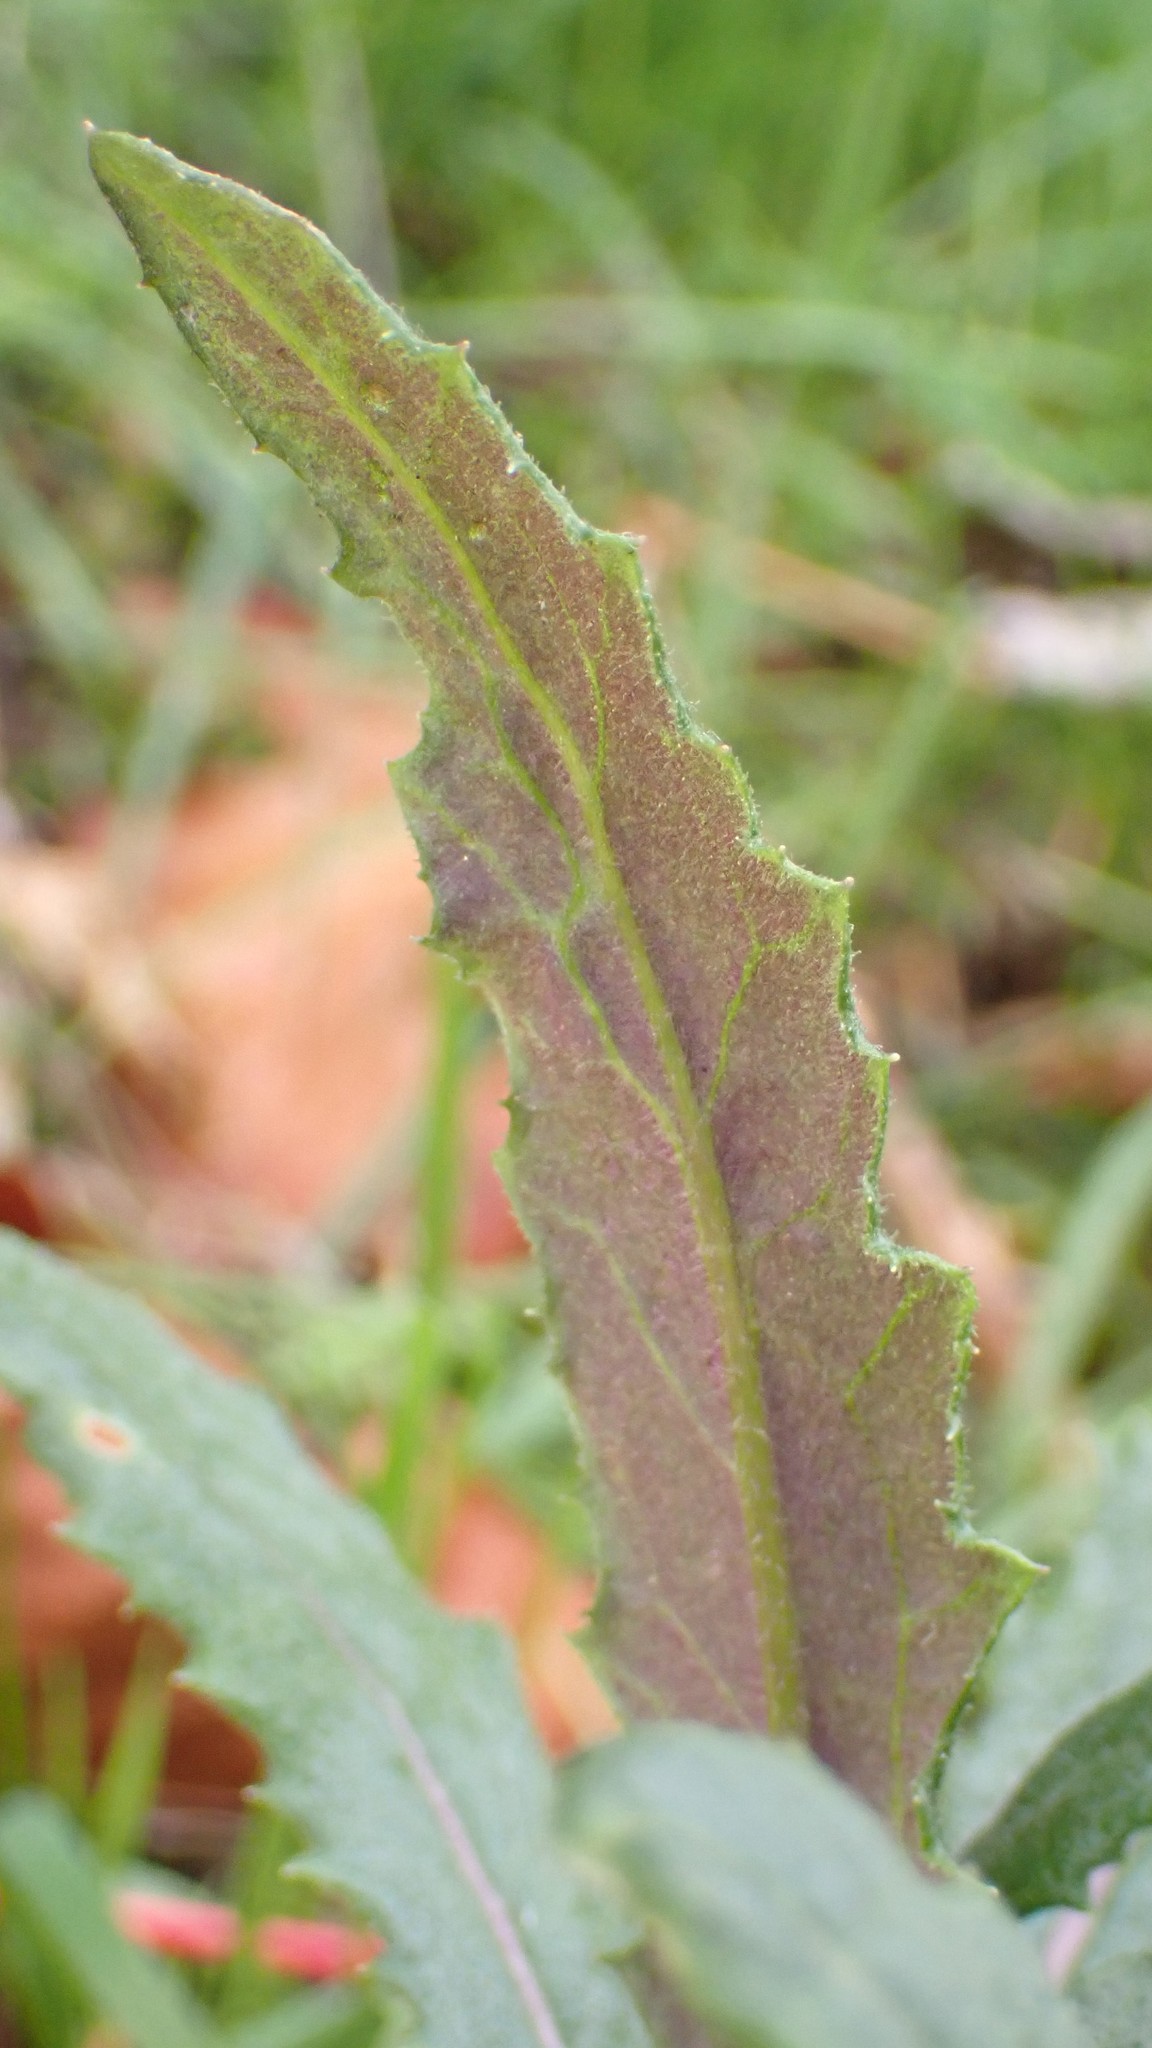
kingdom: Plantae
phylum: Tracheophyta
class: Magnoliopsida
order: Asterales
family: Asteraceae
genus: Senecio
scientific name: Senecio minimus
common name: Toothed fireweed
